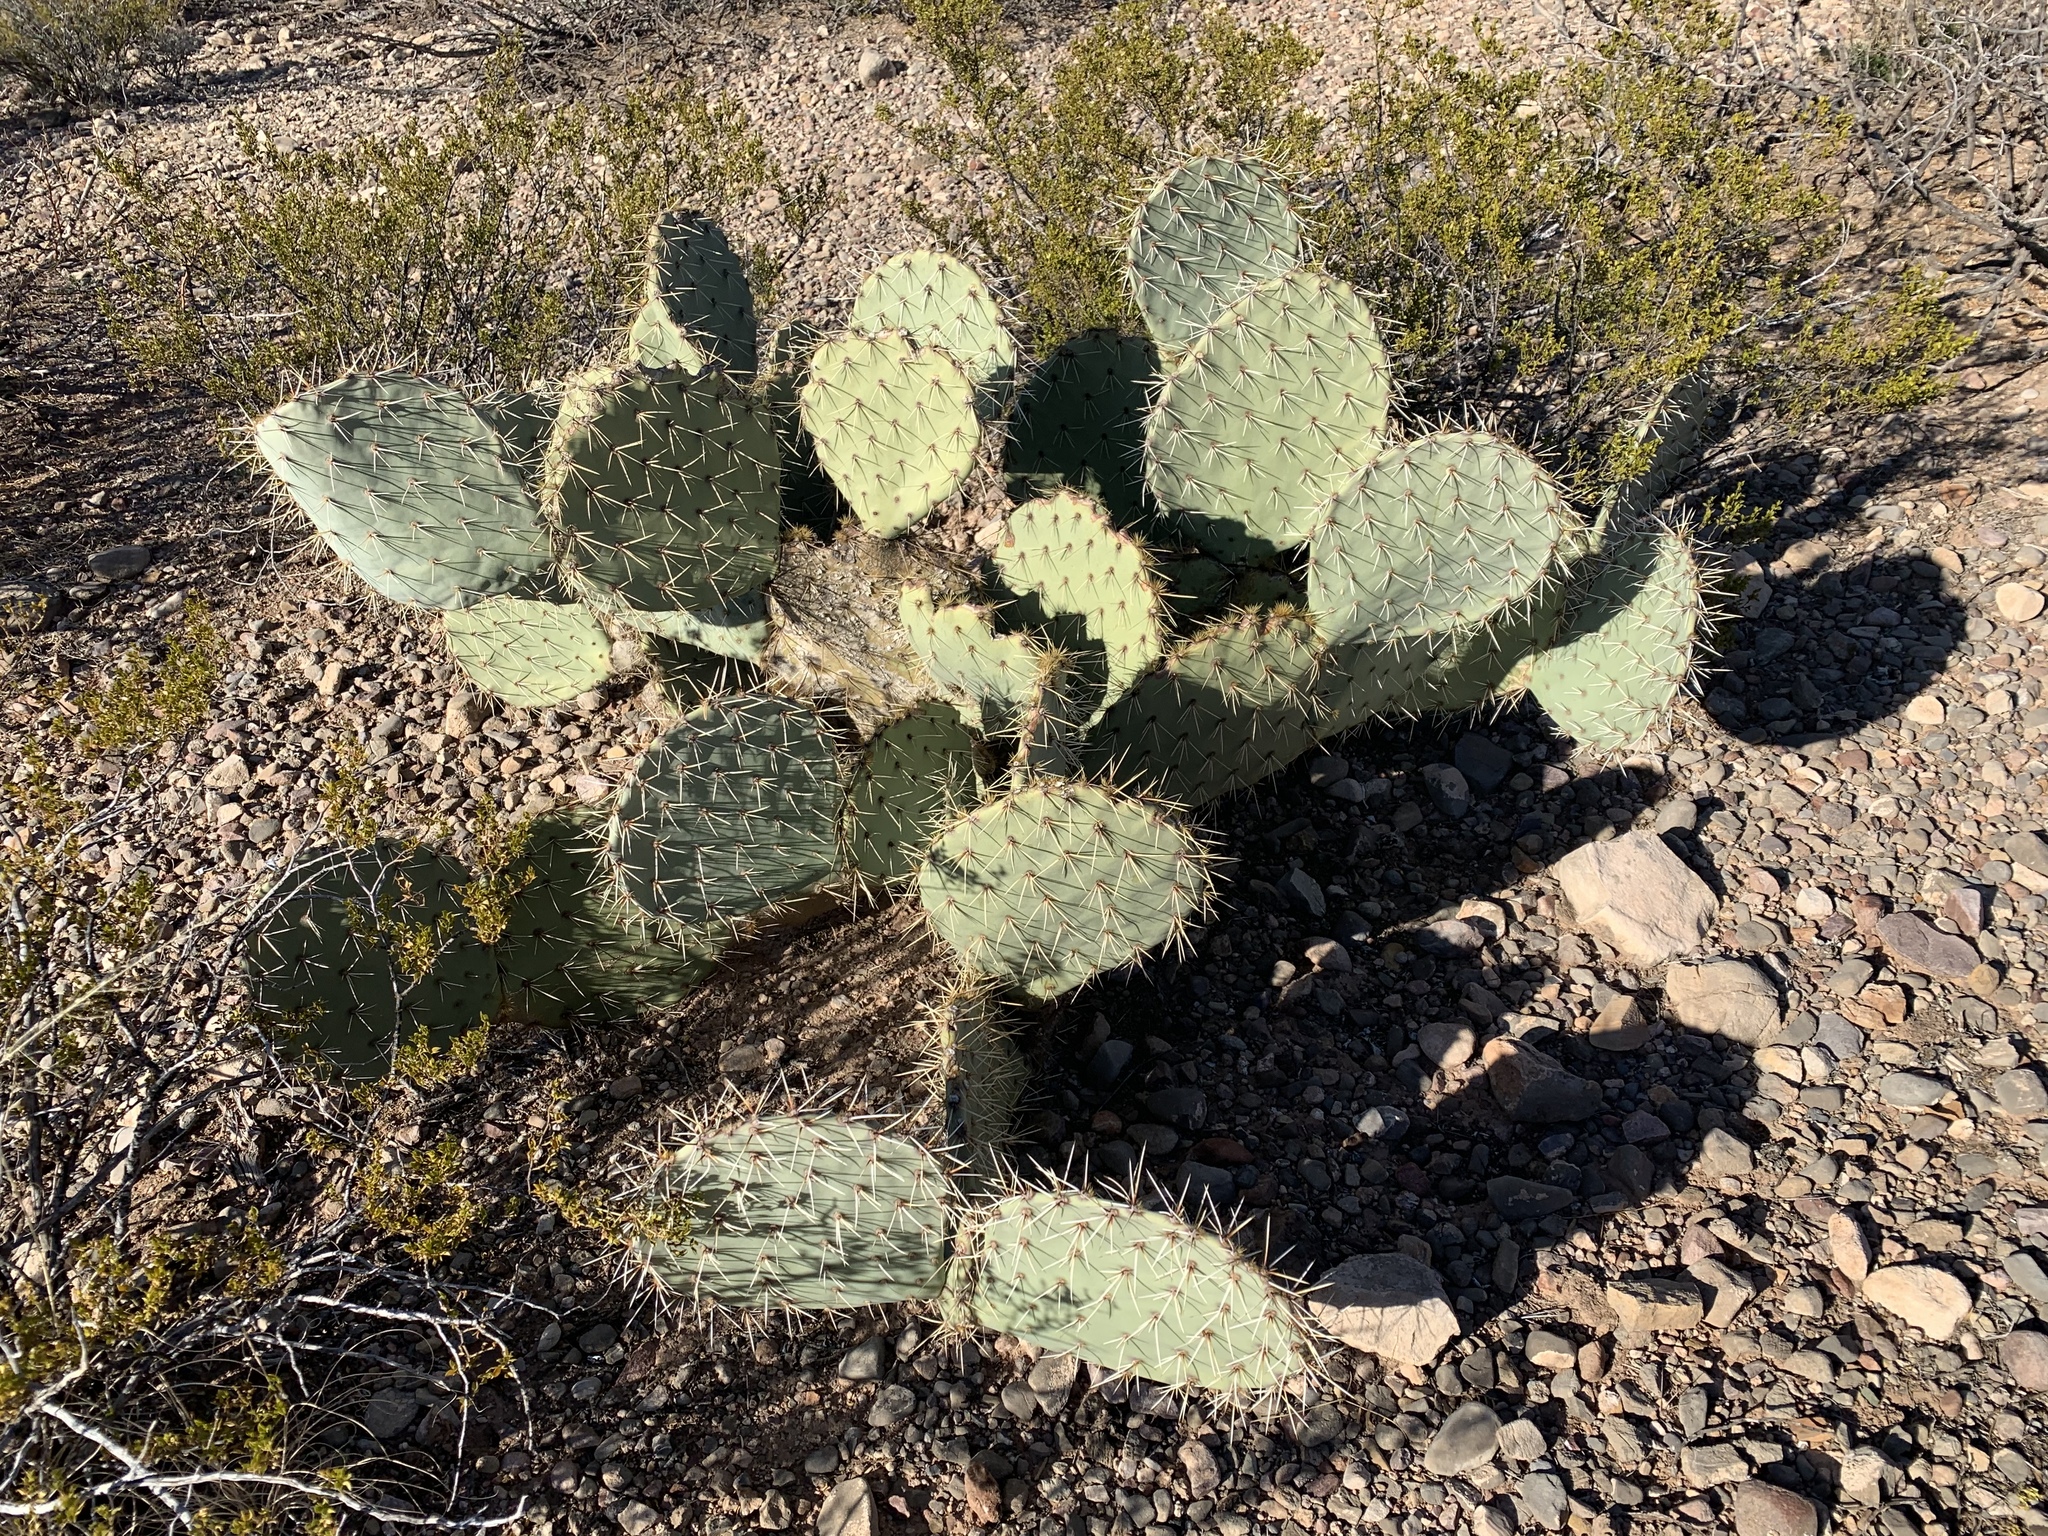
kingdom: Plantae
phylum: Tracheophyta
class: Magnoliopsida
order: Caryophyllales
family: Cactaceae
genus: Opuntia
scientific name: Opuntia engelmannii
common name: Cactus-apple
